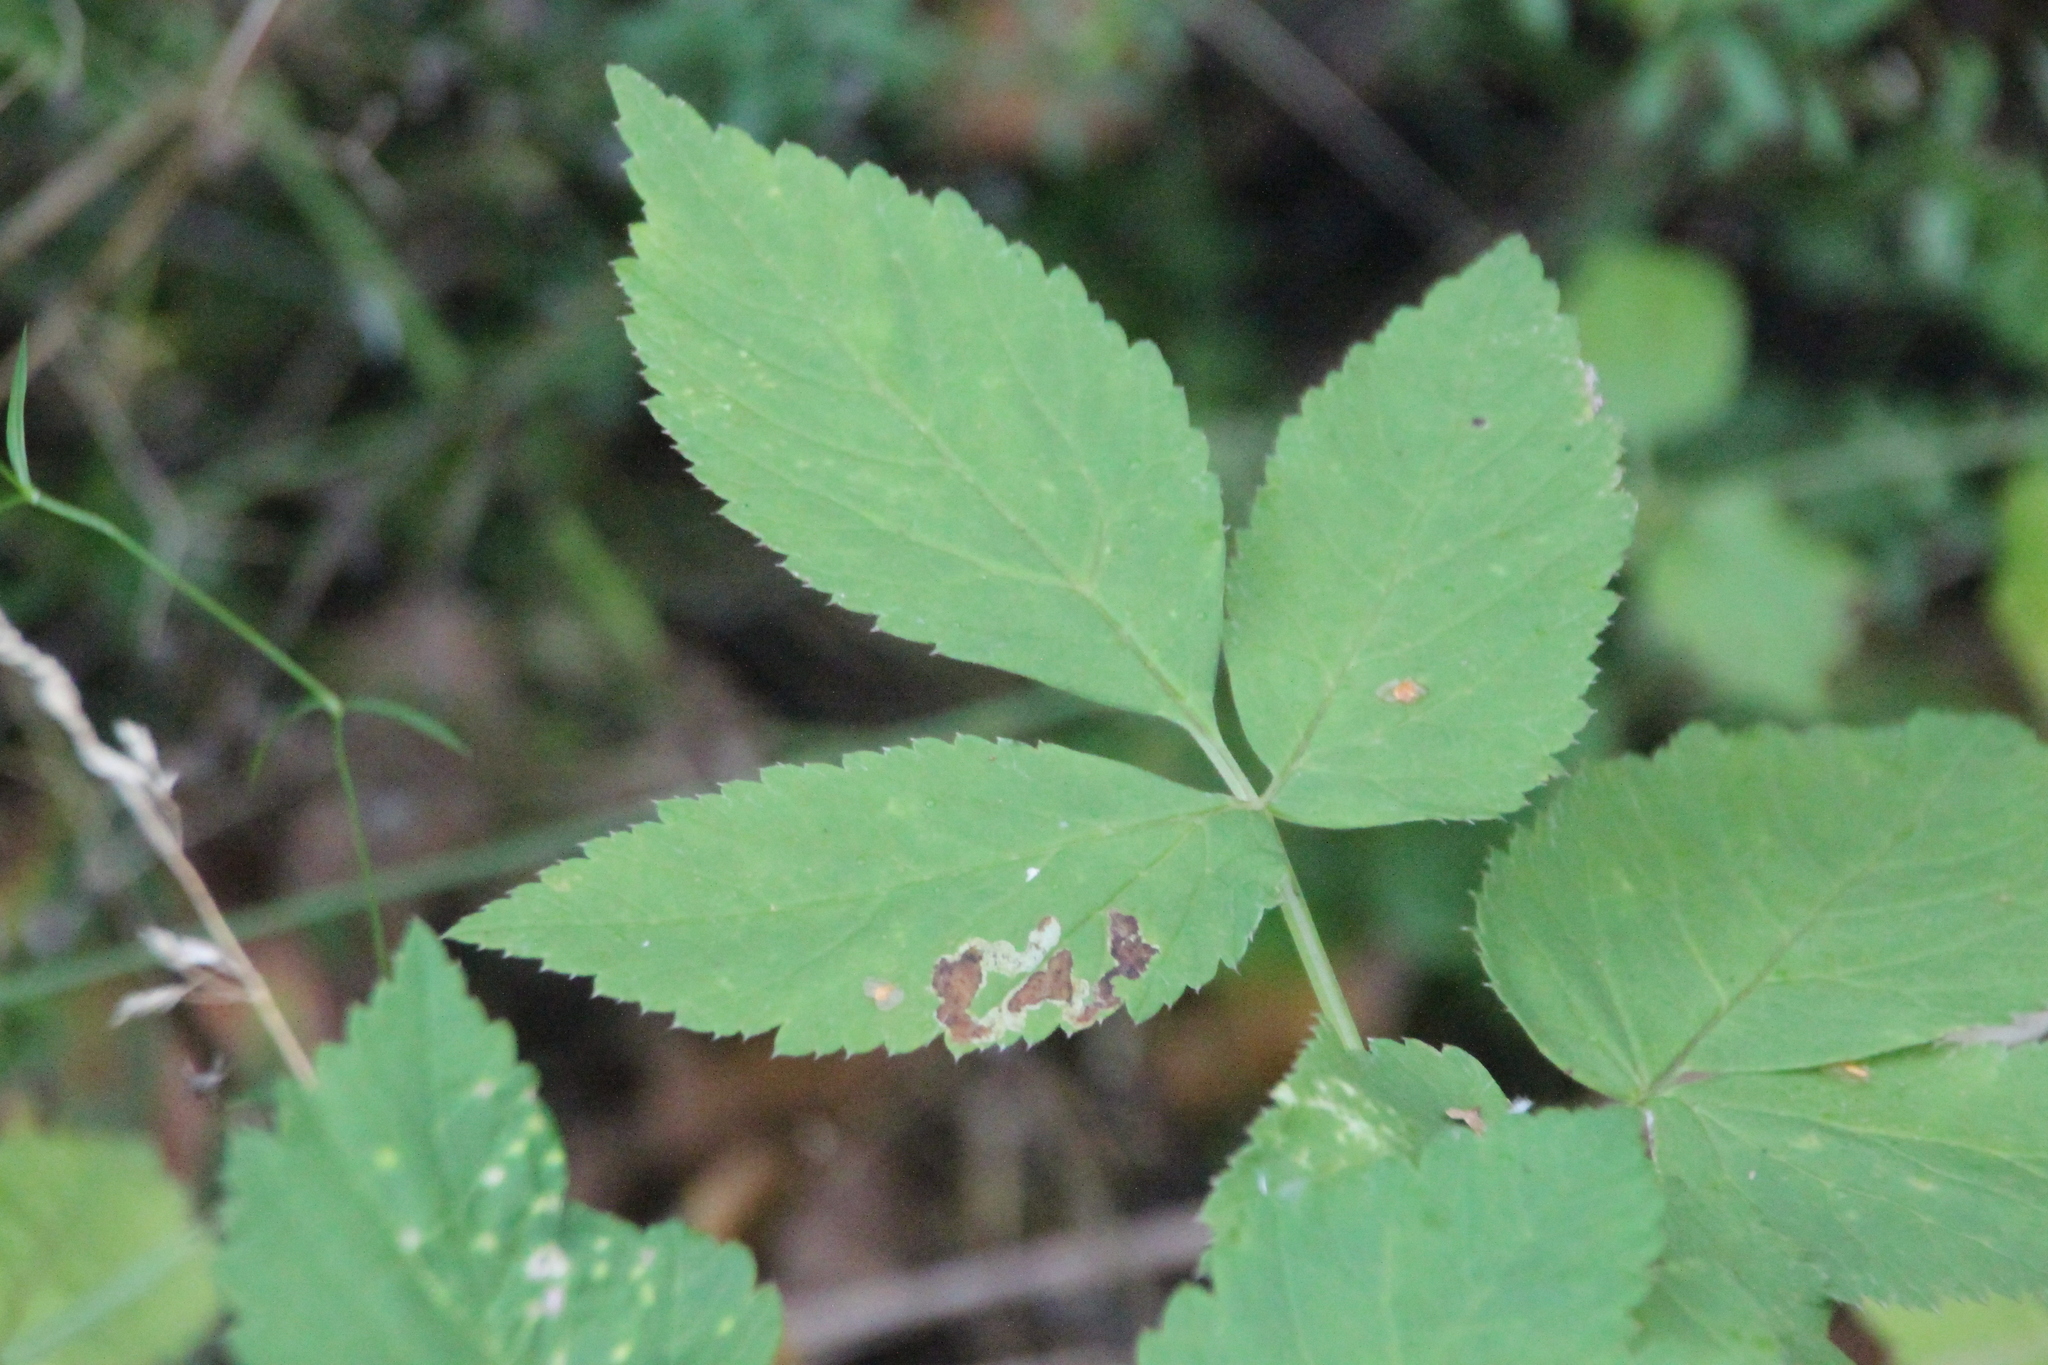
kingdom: Plantae
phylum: Tracheophyta
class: Magnoliopsida
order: Apiales
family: Apiaceae
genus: Aegopodium
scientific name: Aegopodium podagraria
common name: Ground-elder
